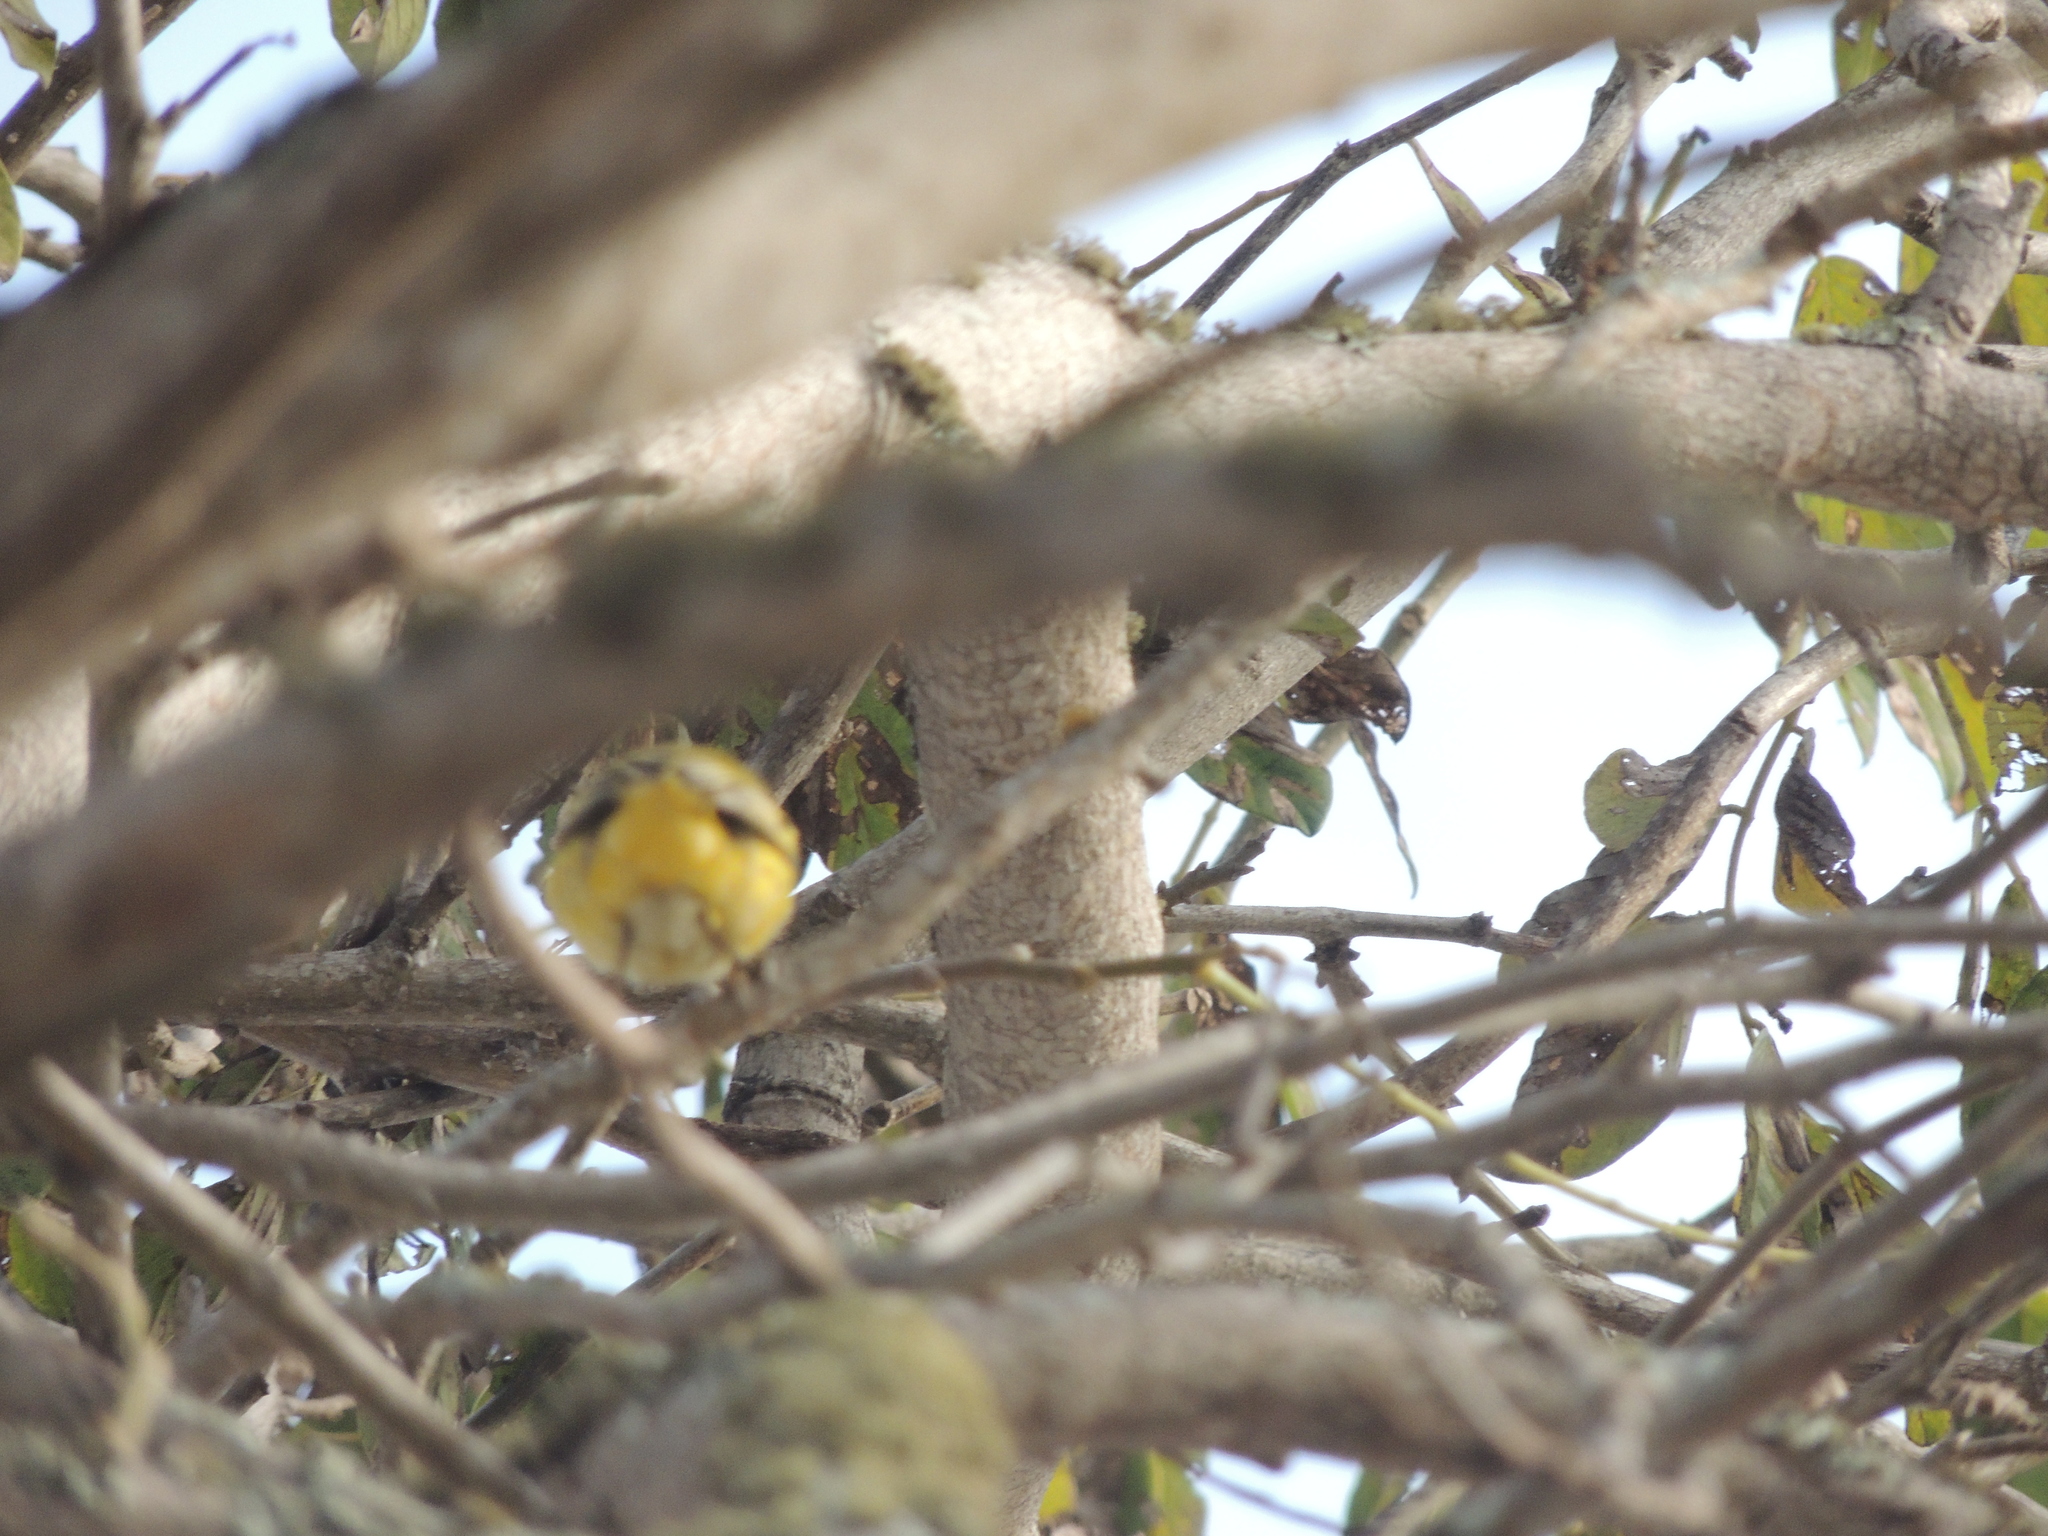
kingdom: Animalia
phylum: Chordata
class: Aves
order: Passeriformes
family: Parulidae
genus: Setophaga
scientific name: Setophaga petechia
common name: Yellow warbler
